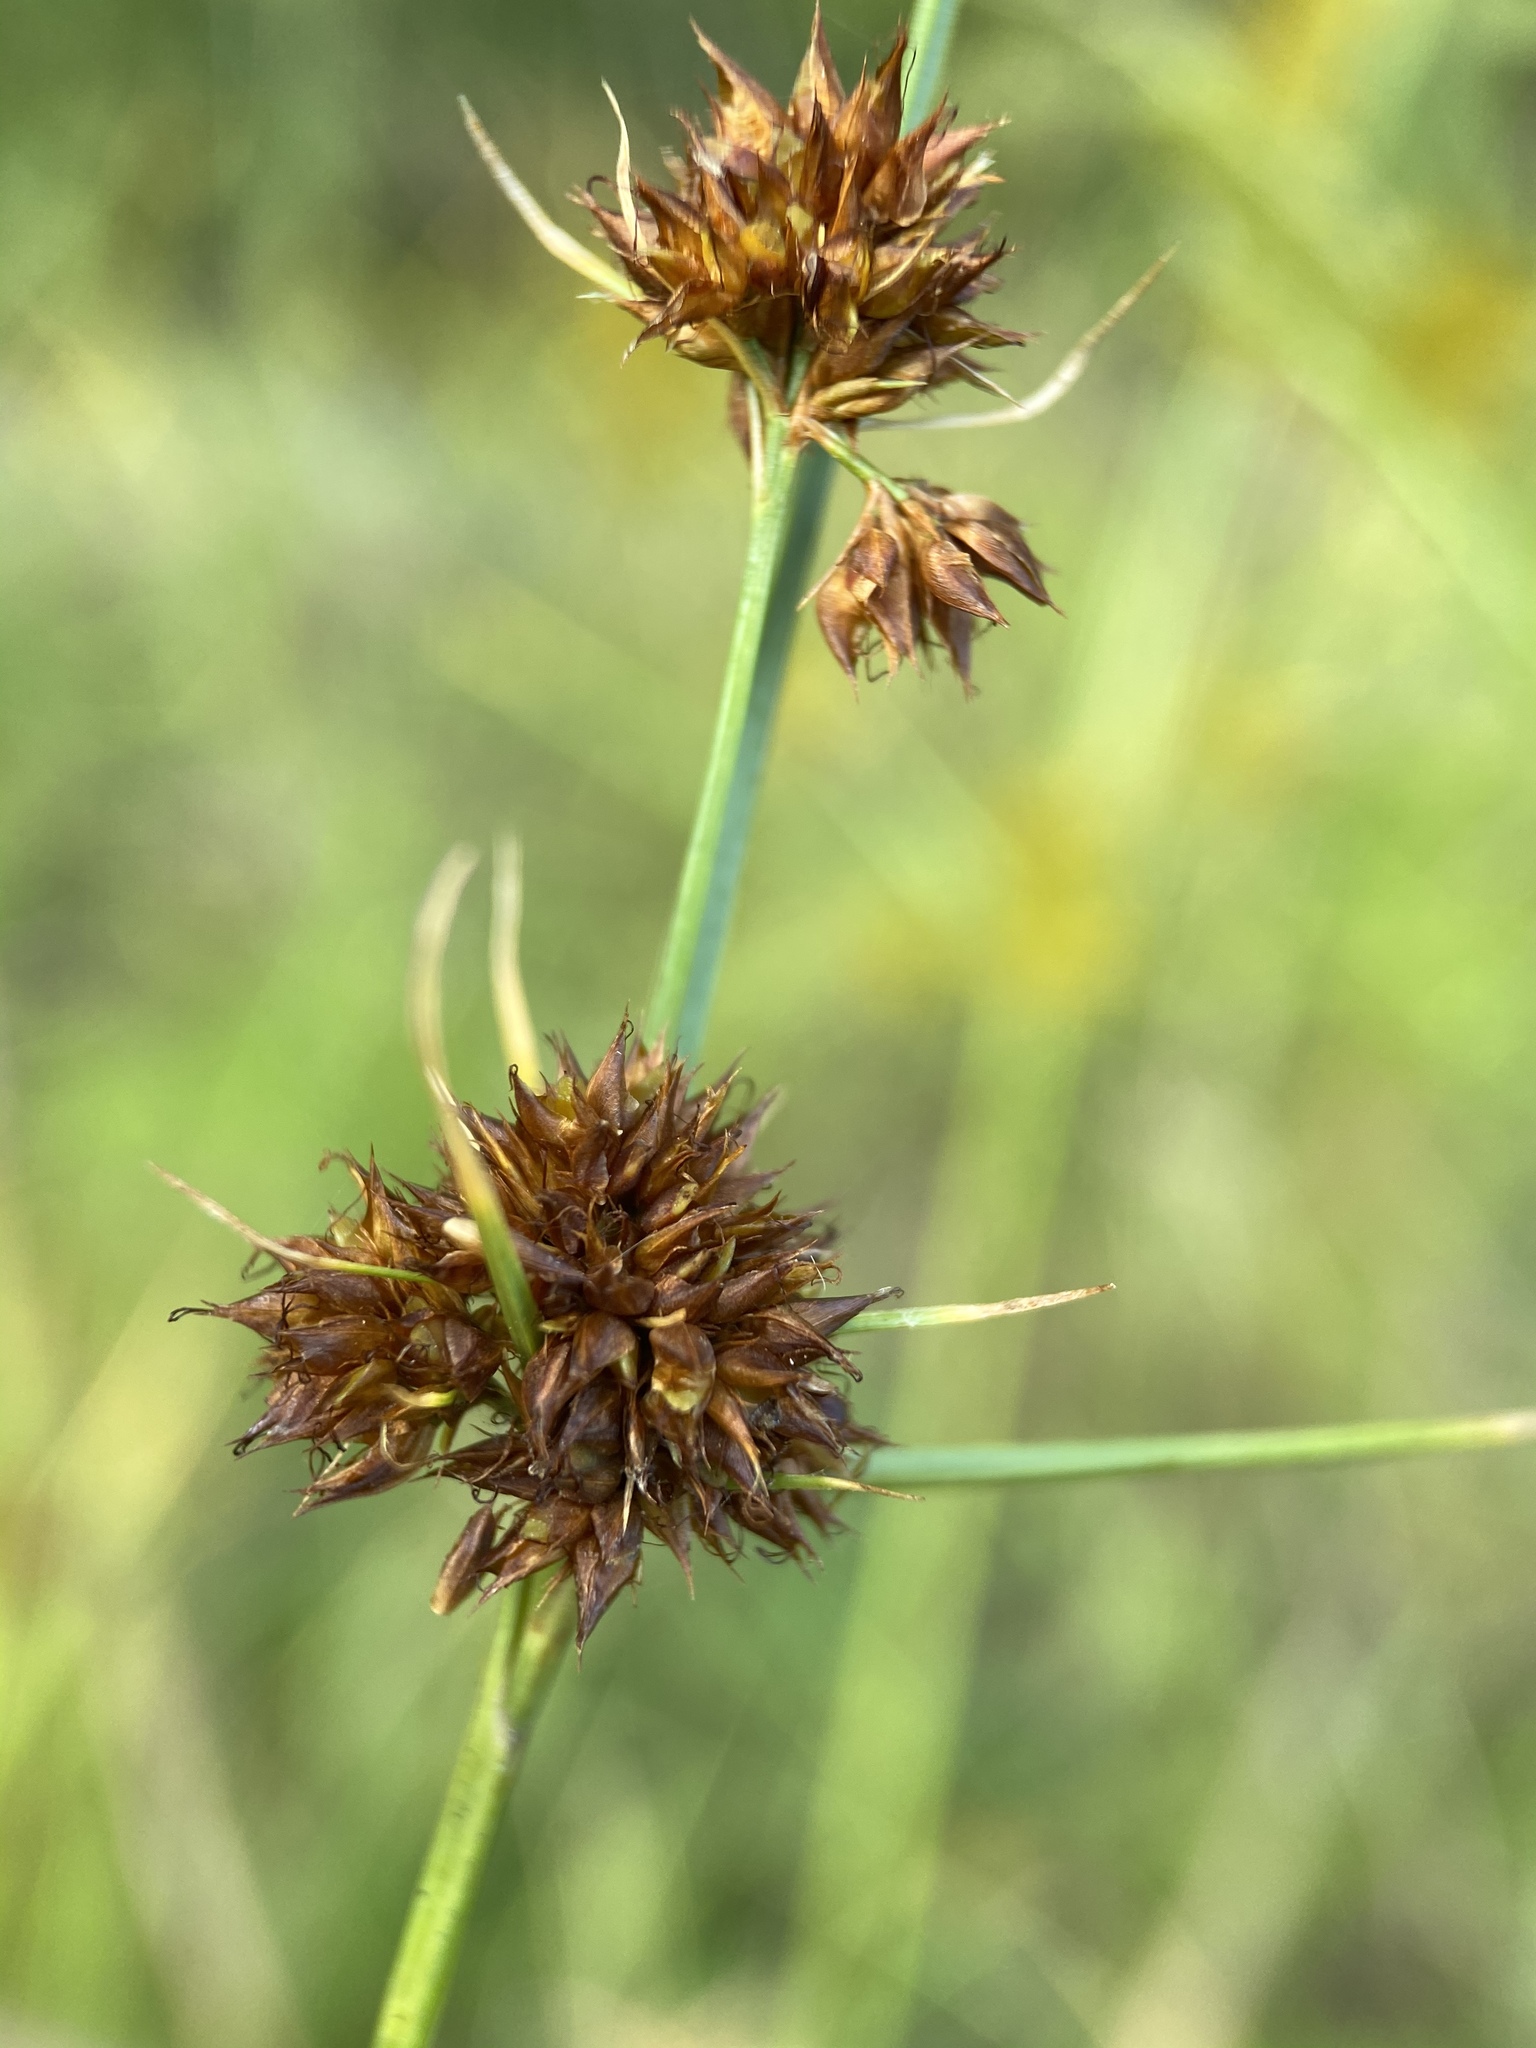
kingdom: Plantae
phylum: Tracheophyta
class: Liliopsida
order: Poales
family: Cyperaceae
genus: Rhynchospora
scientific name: Rhynchospora fascicularis
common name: Fascicled beak sedge
